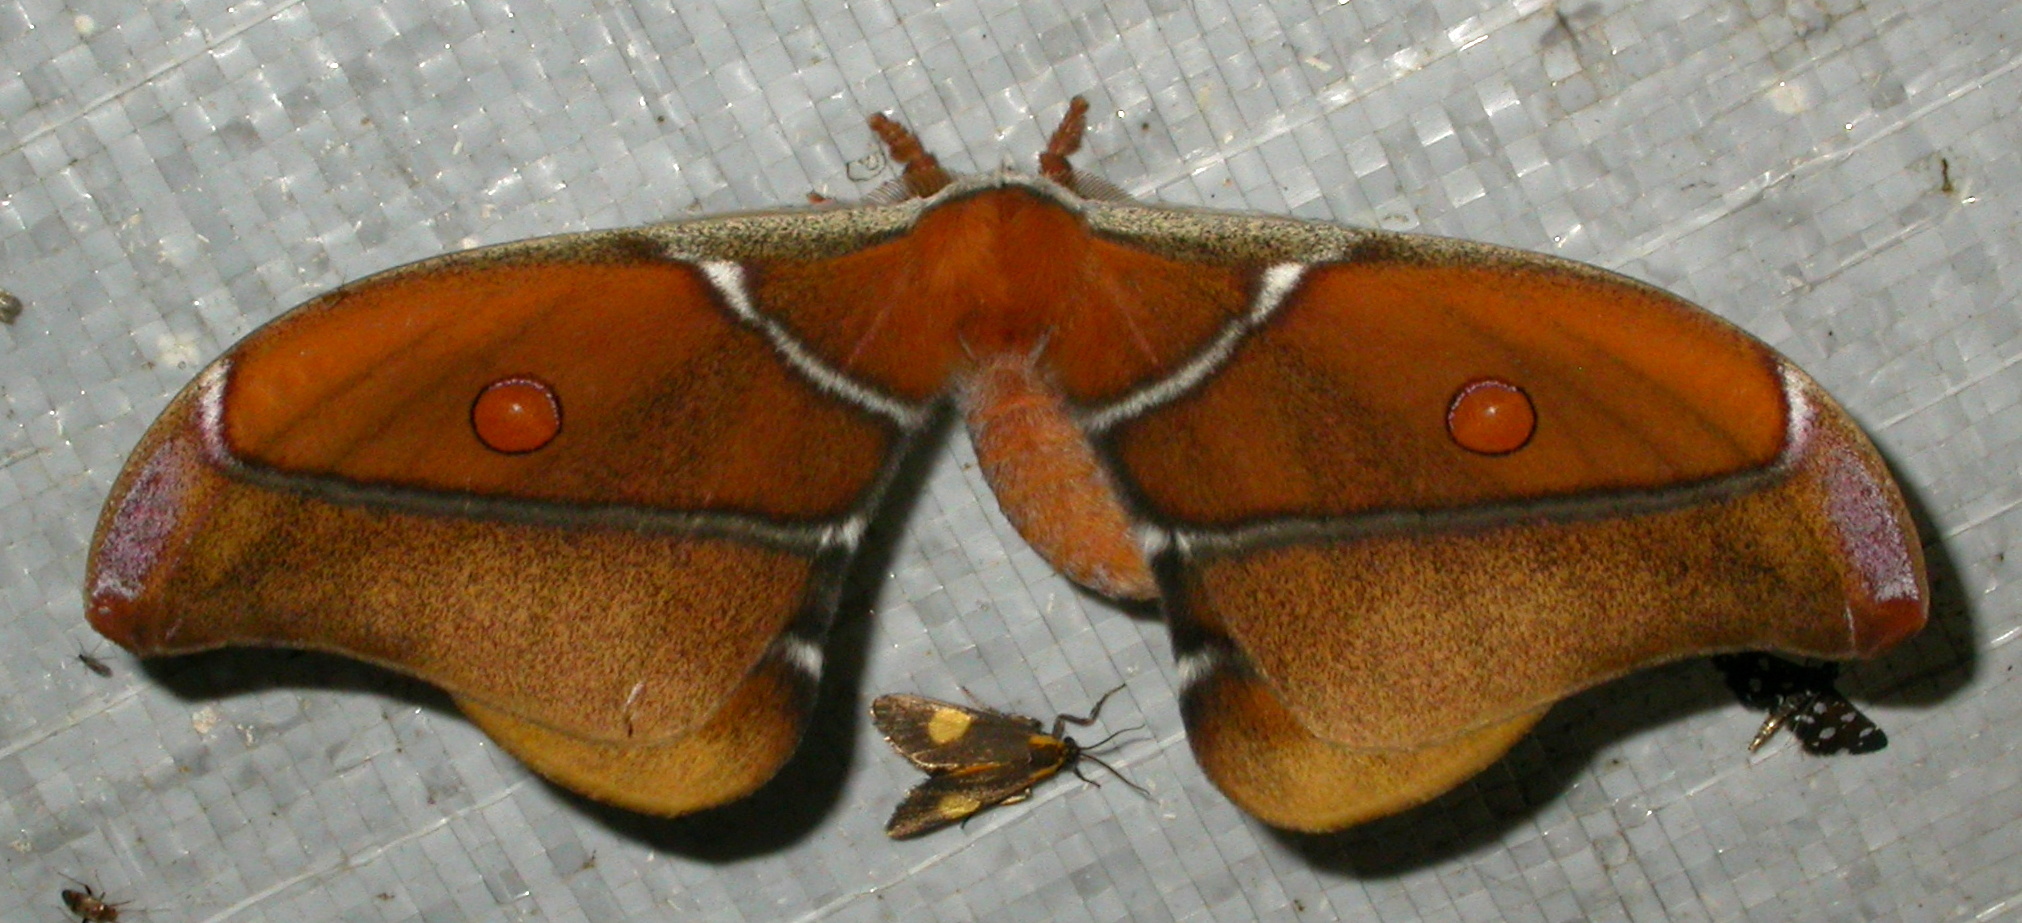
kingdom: Animalia
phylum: Arthropoda
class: Insecta
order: Lepidoptera
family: Saturniidae
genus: Antherina
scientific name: Antherina suraka
